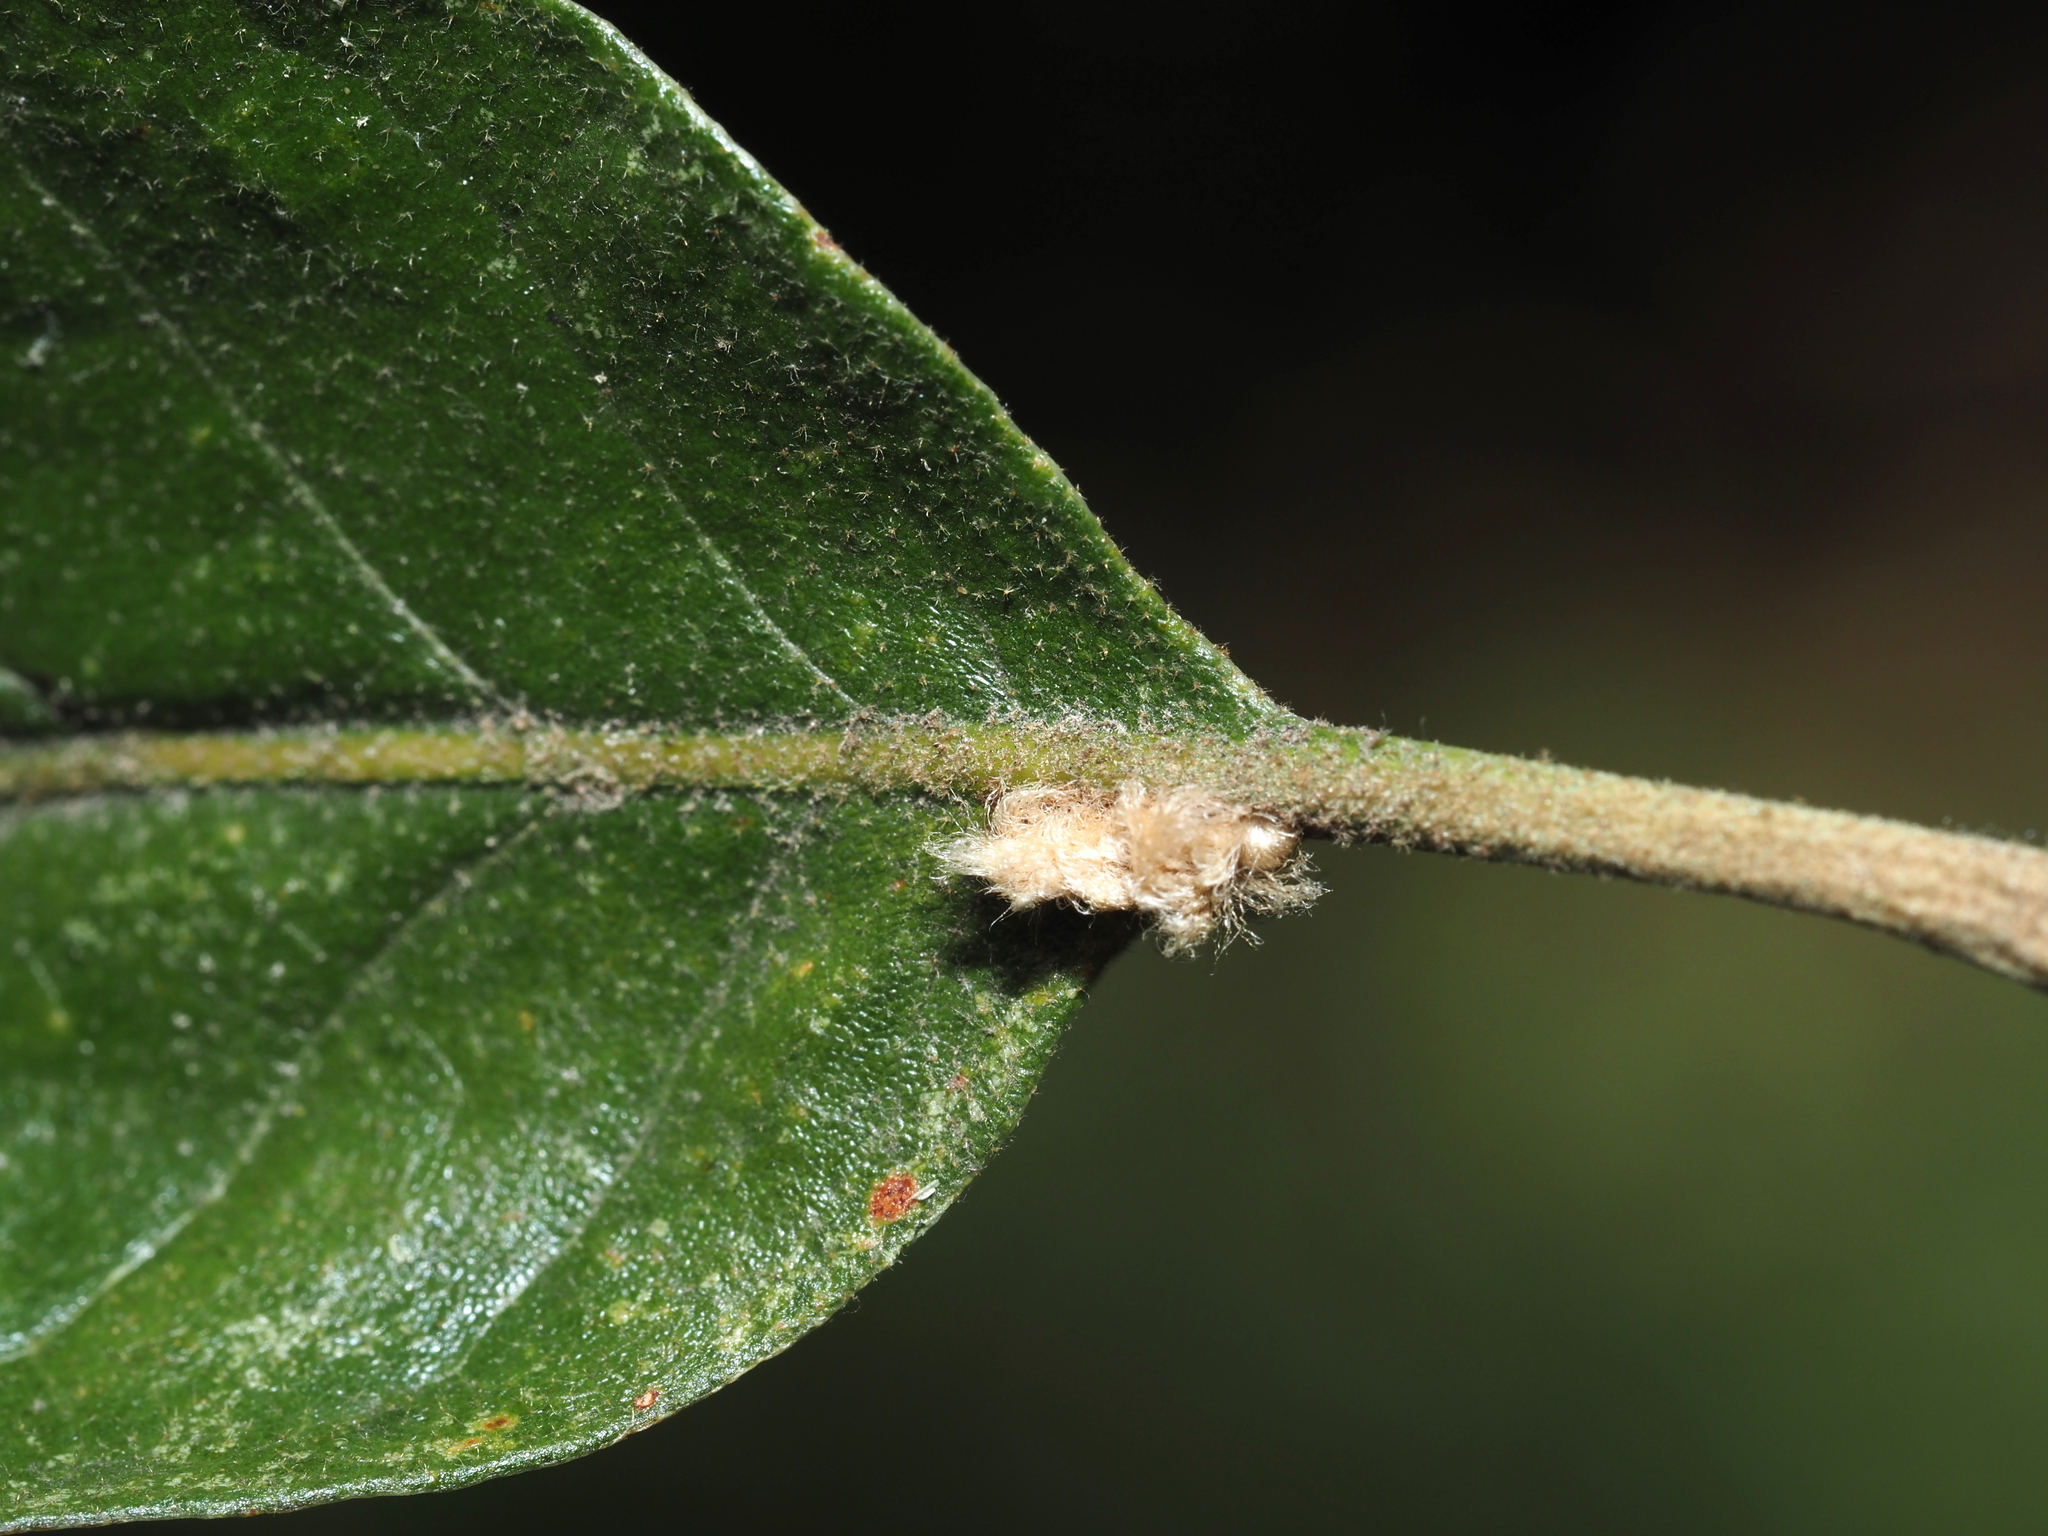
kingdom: Animalia
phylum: Arthropoda
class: Insecta
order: Hymenoptera
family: Cynipidae
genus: Andricus
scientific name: Andricus Druon pattoni
